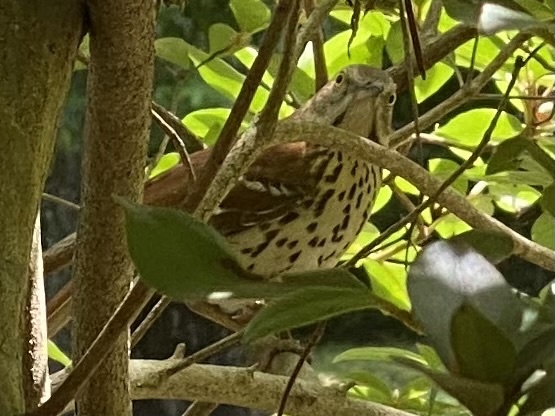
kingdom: Animalia
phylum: Chordata
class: Aves
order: Passeriformes
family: Mimidae
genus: Toxostoma
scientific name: Toxostoma rufum
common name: Brown thrasher
